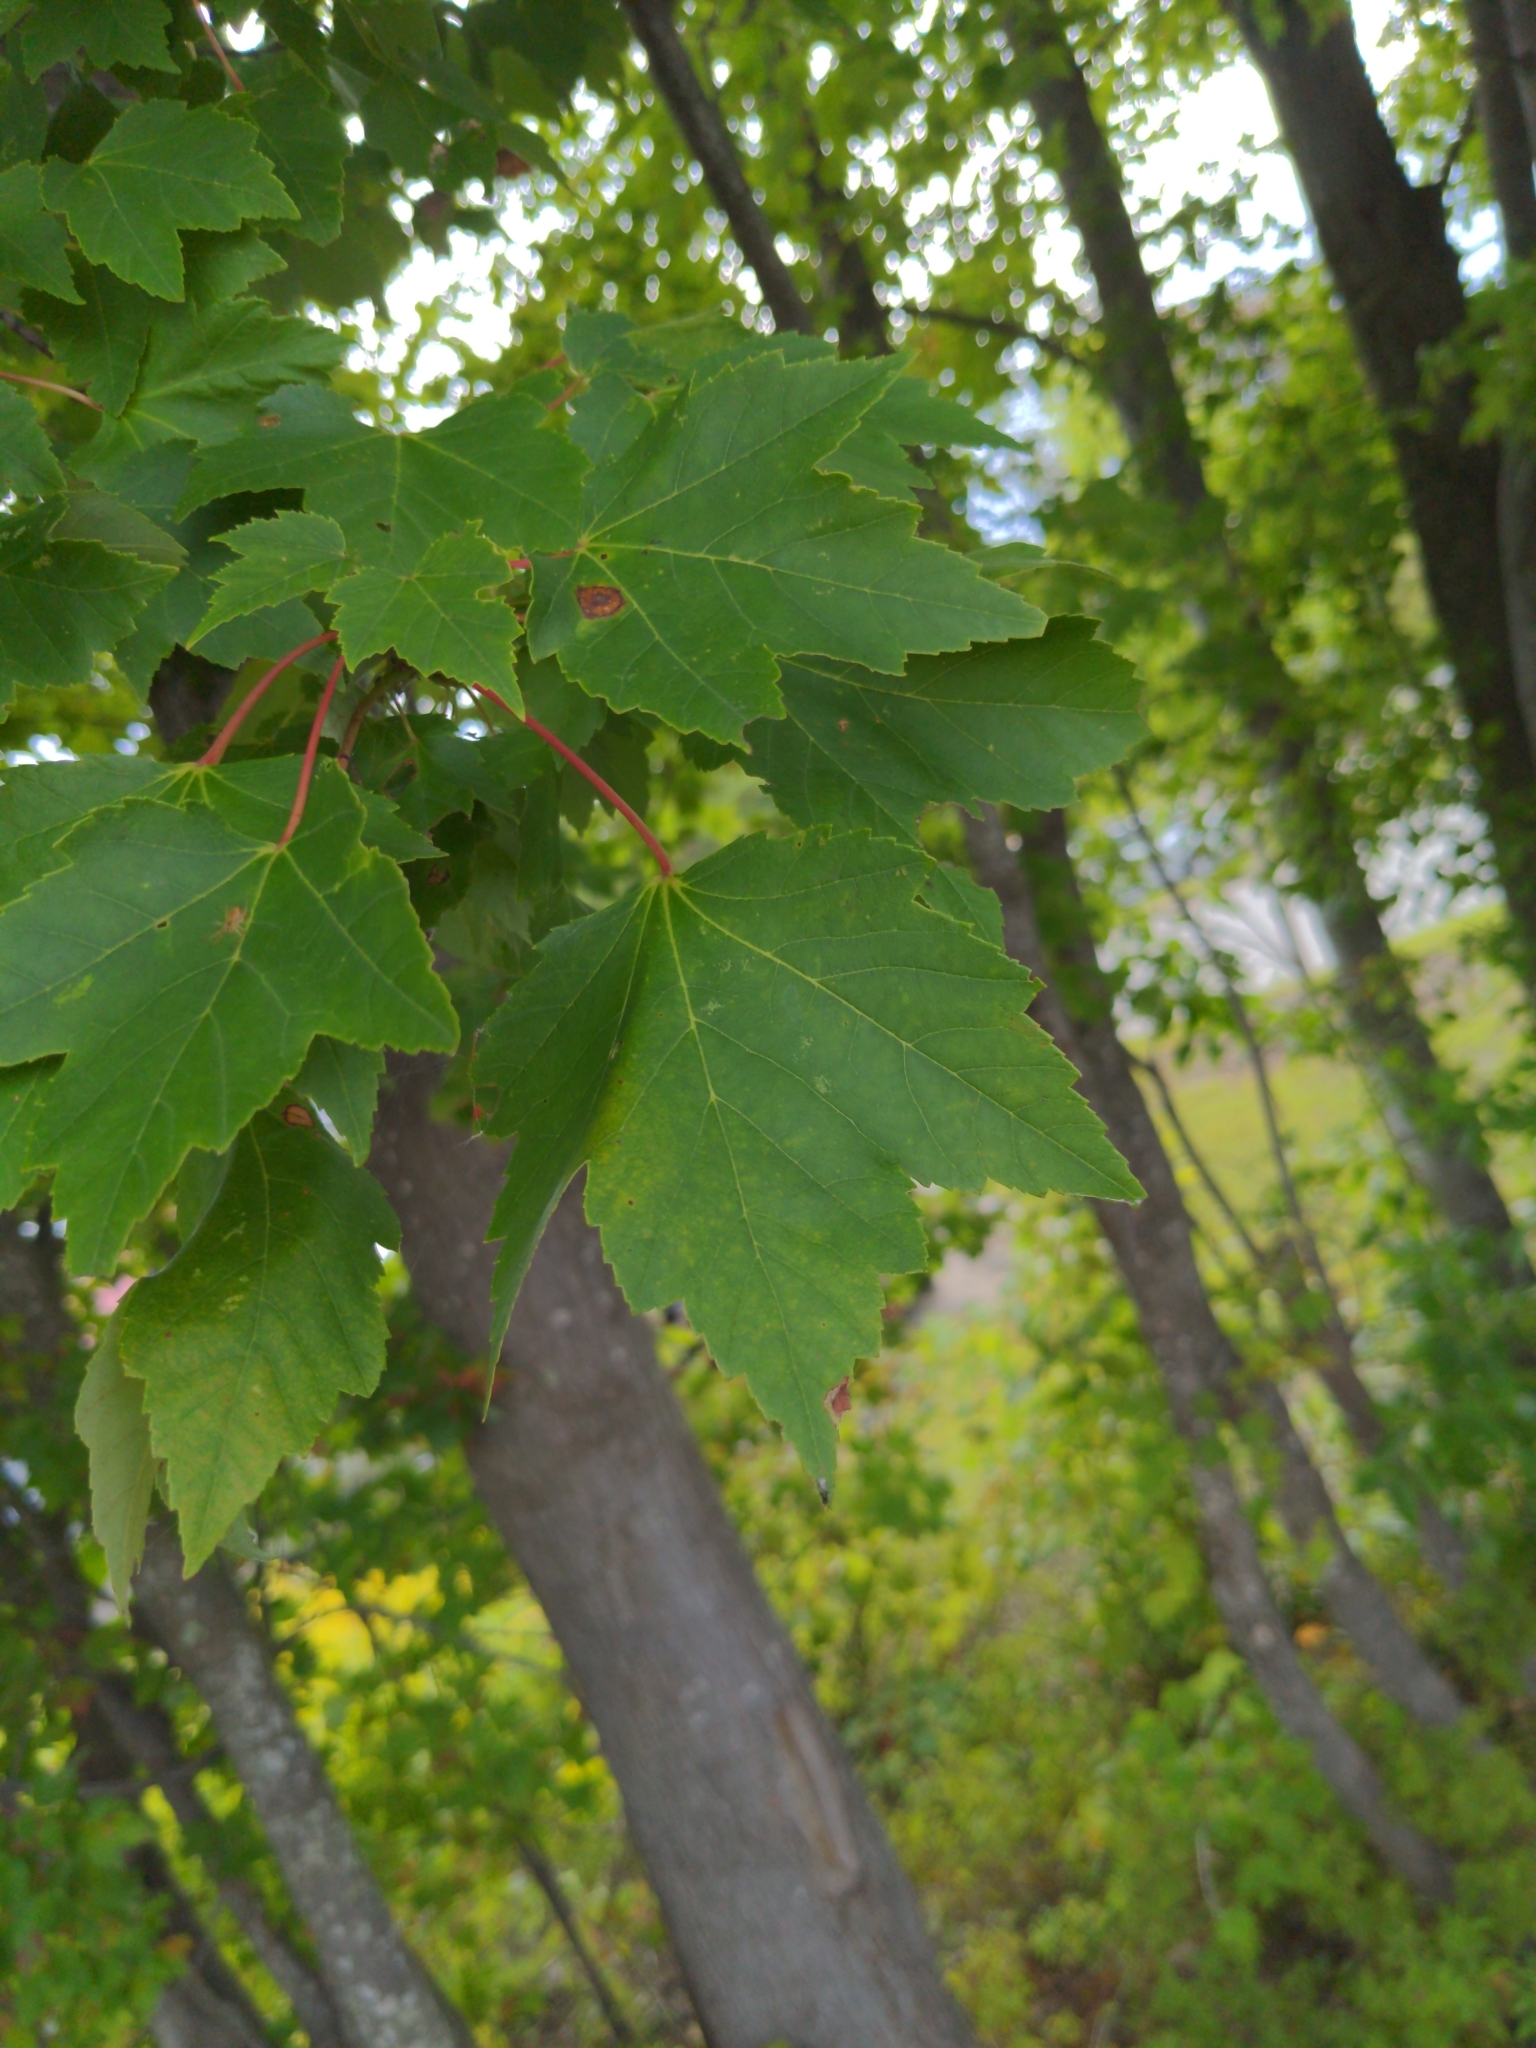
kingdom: Plantae
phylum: Tracheophyta
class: Magnoliopsida
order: Sapindales
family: Sapindaceae
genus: Acer
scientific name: Acer rubrum
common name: Red maple
